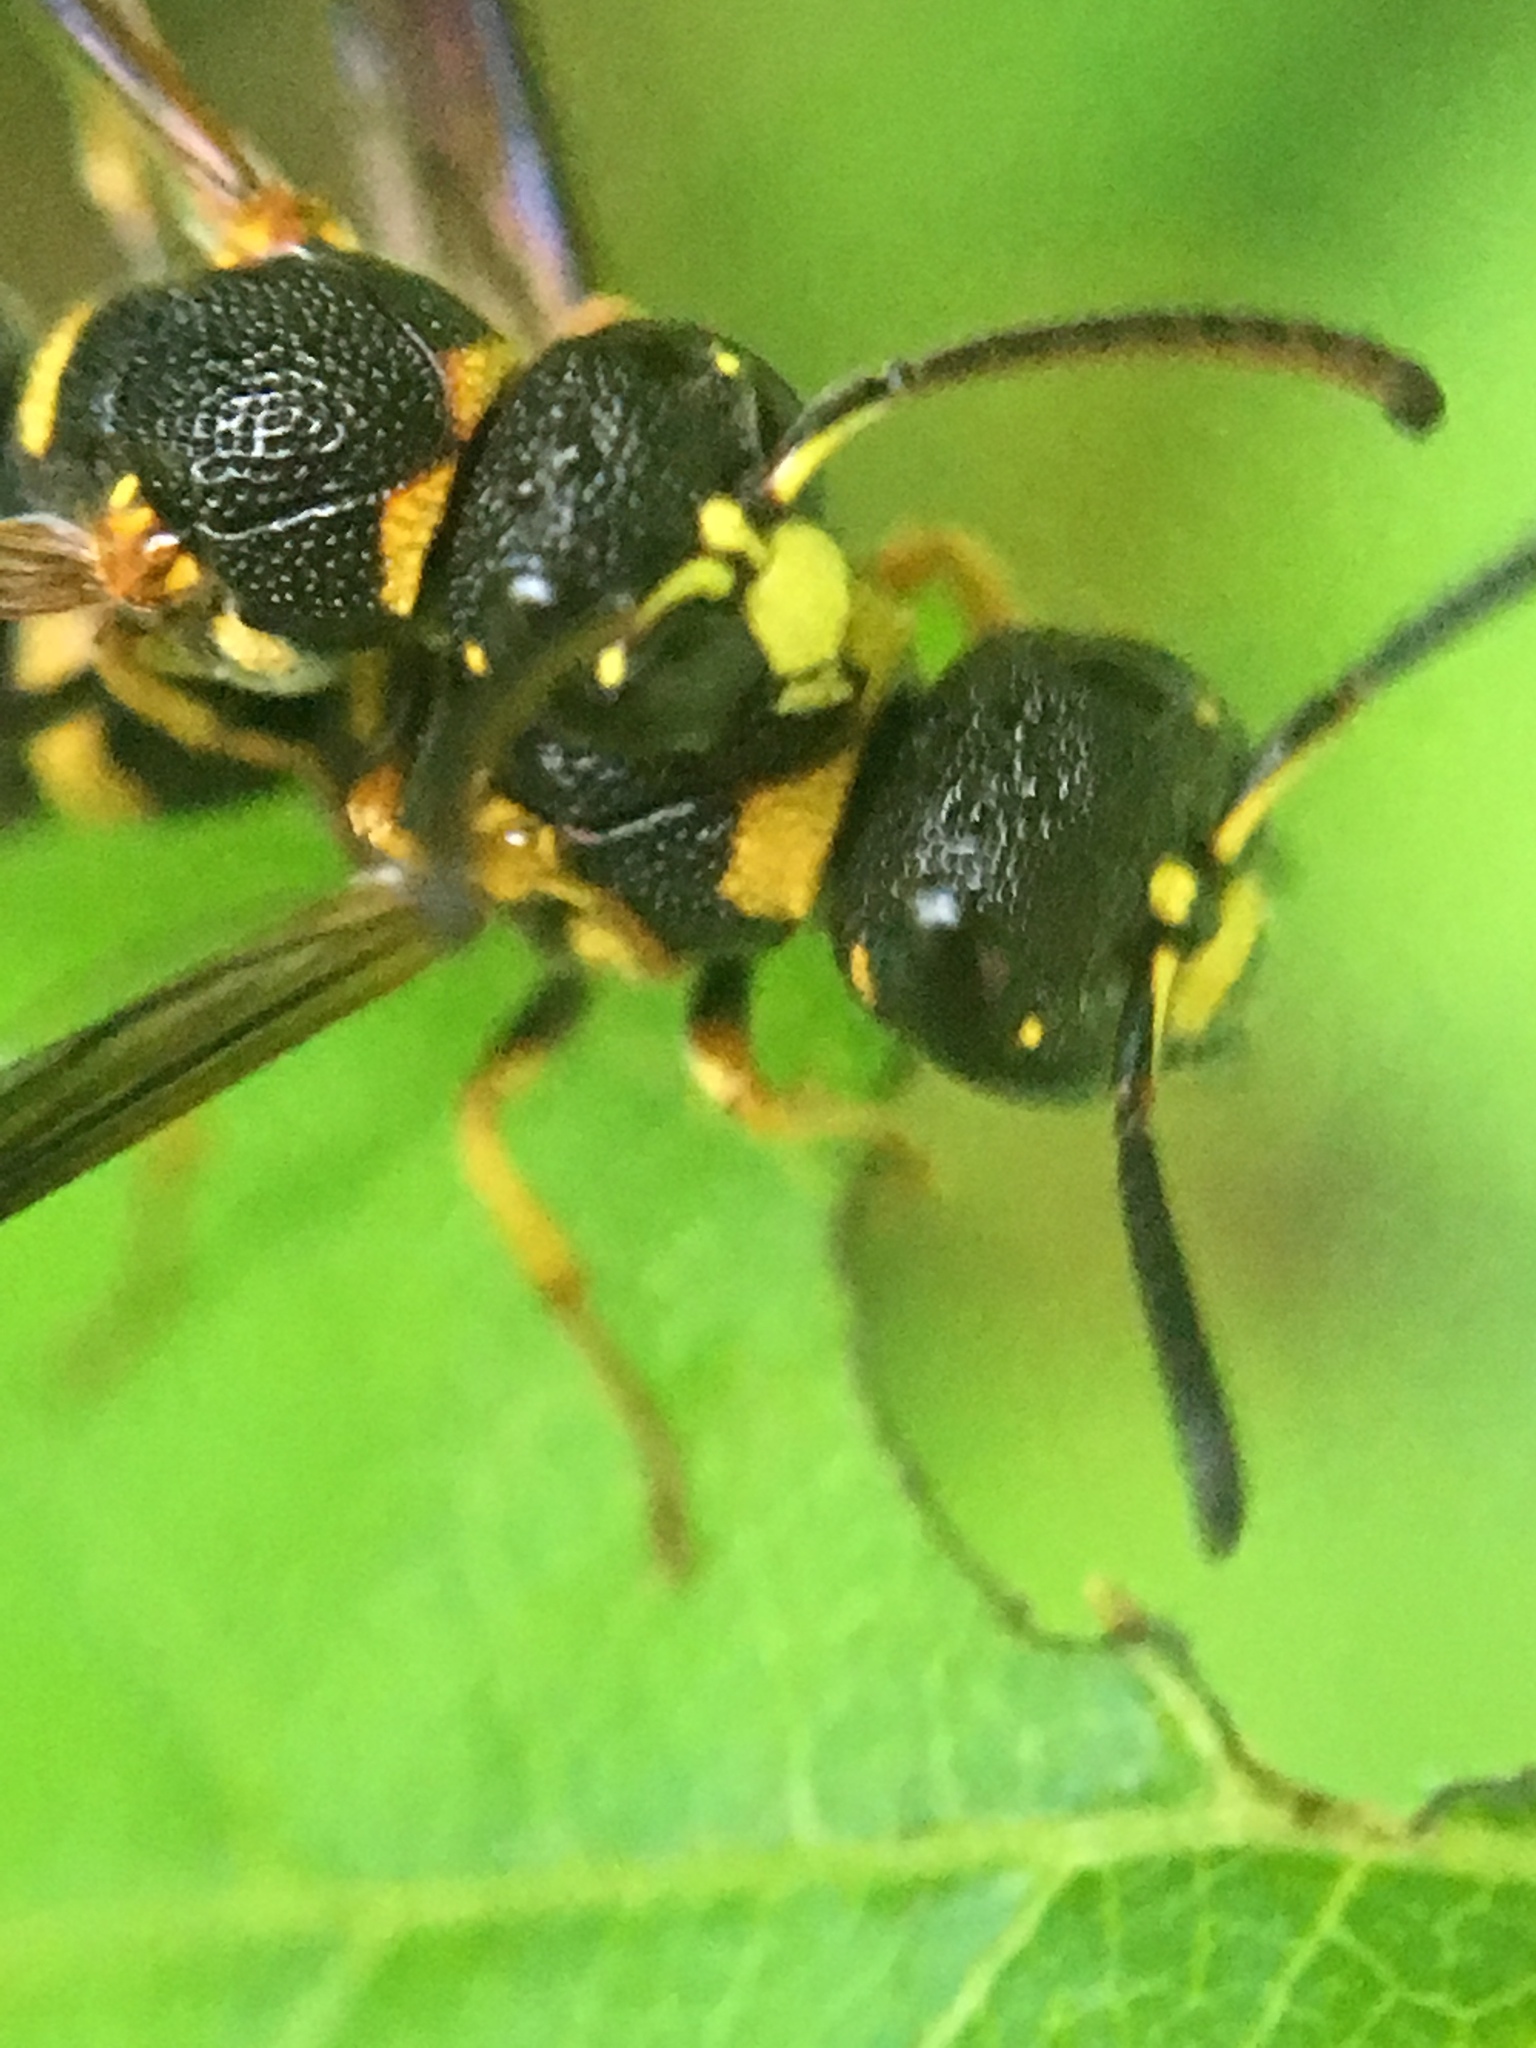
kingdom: Animalia
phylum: Arthropoda
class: Insecta
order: Hymenoptera
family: Eumenidae
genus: Parancistrocerus
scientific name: Parancistrocerus perennis
